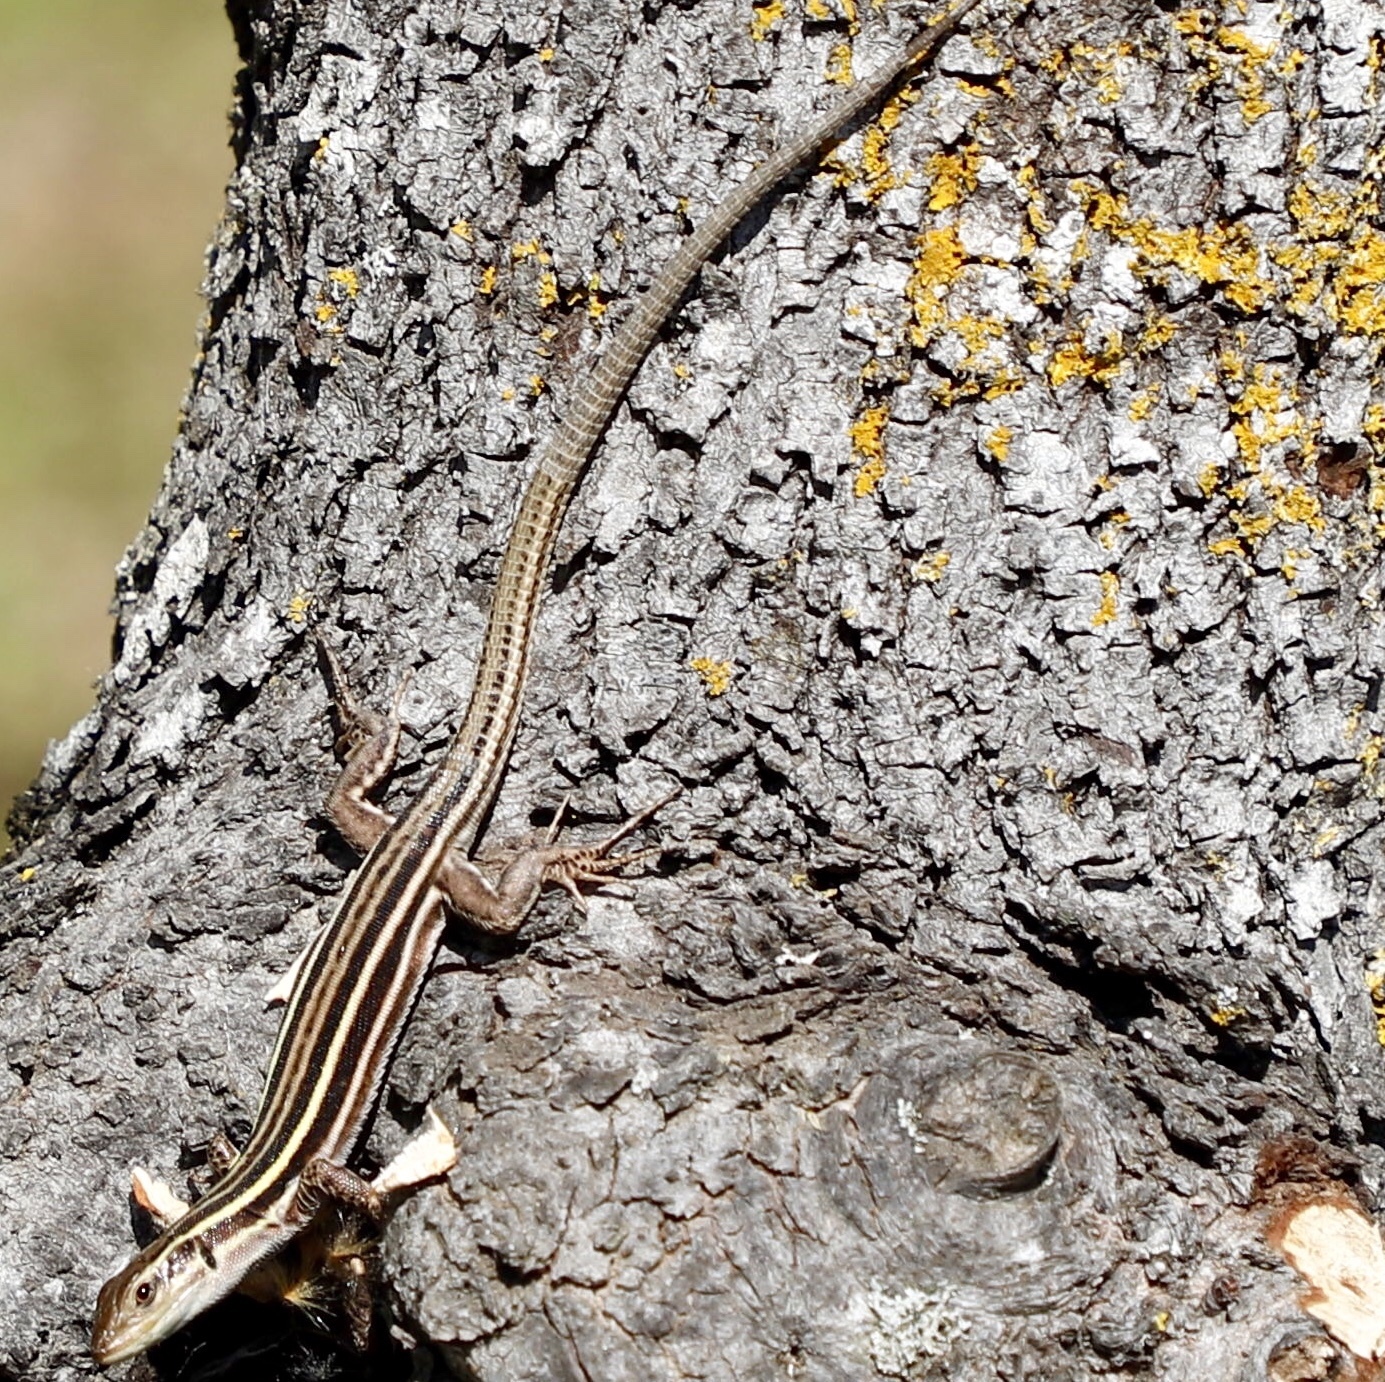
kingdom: Animalia
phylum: Chordata
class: Squamata
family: Lacertidae
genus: Podarcis
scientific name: Podarcis peloponnesiacus
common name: Peloponnese wall lizard
